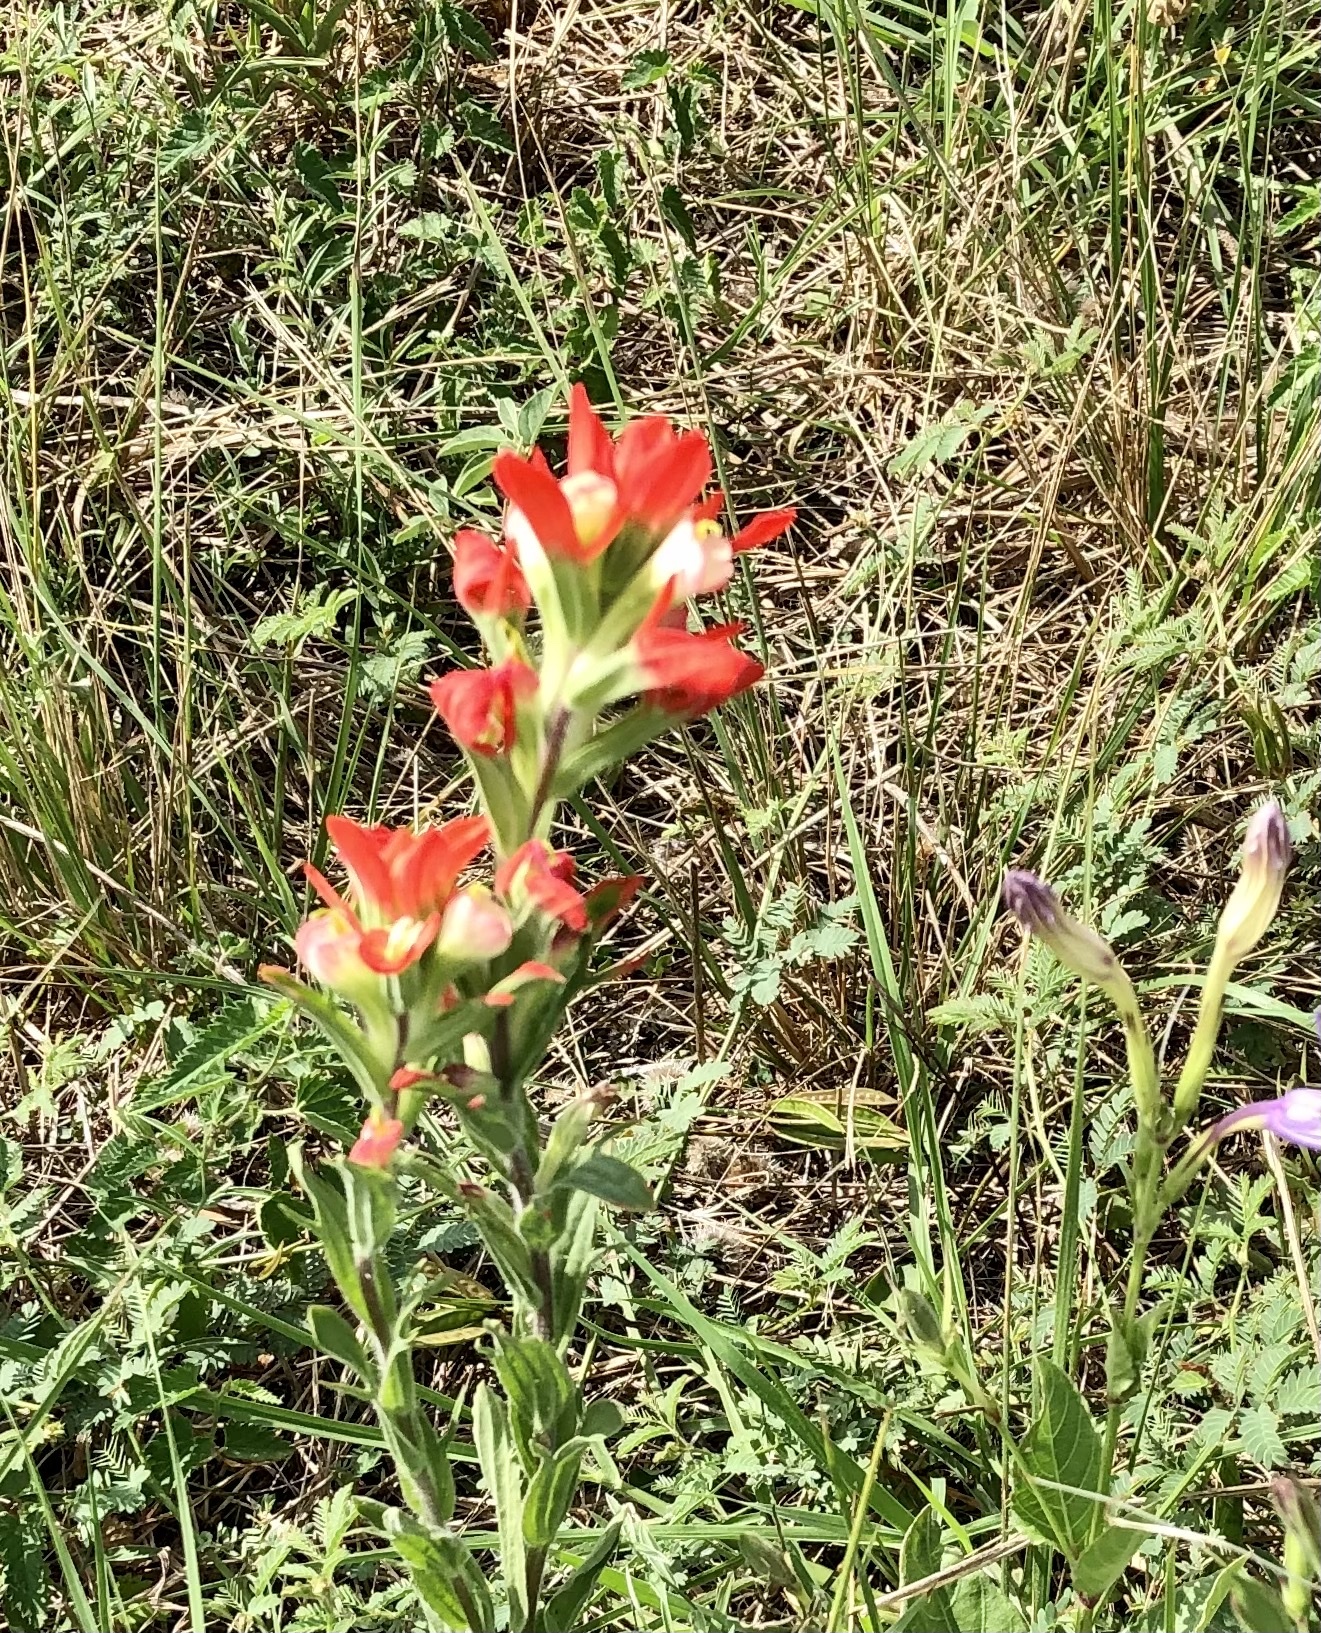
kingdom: Plantae
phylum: Tracheophyta
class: Magnoliopsida
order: Lamiales
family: Orobanchaceae
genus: Castilleja
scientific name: Castilleja indivisa
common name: Texas paintbrush
